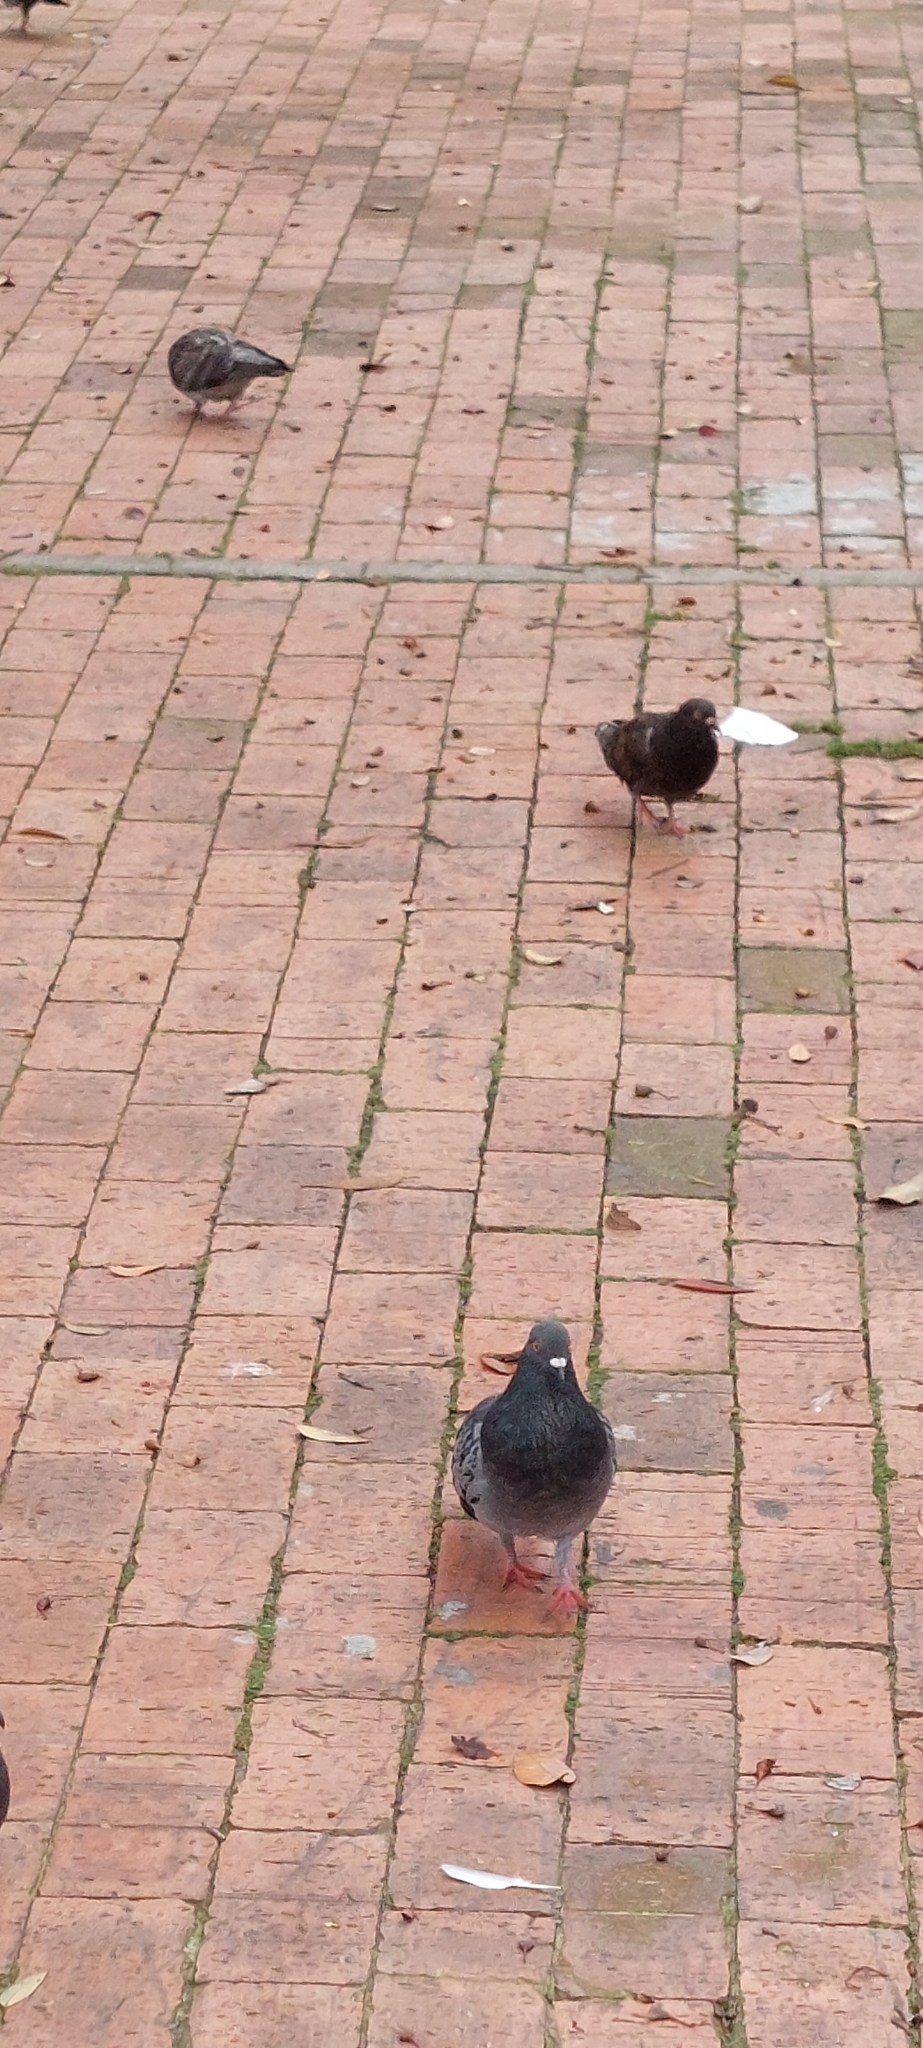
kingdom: Animalia
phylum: Chordata
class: Aves
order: Columbiformes
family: Columbidae
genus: Columba
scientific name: Columba livia
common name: Rock pigeon
